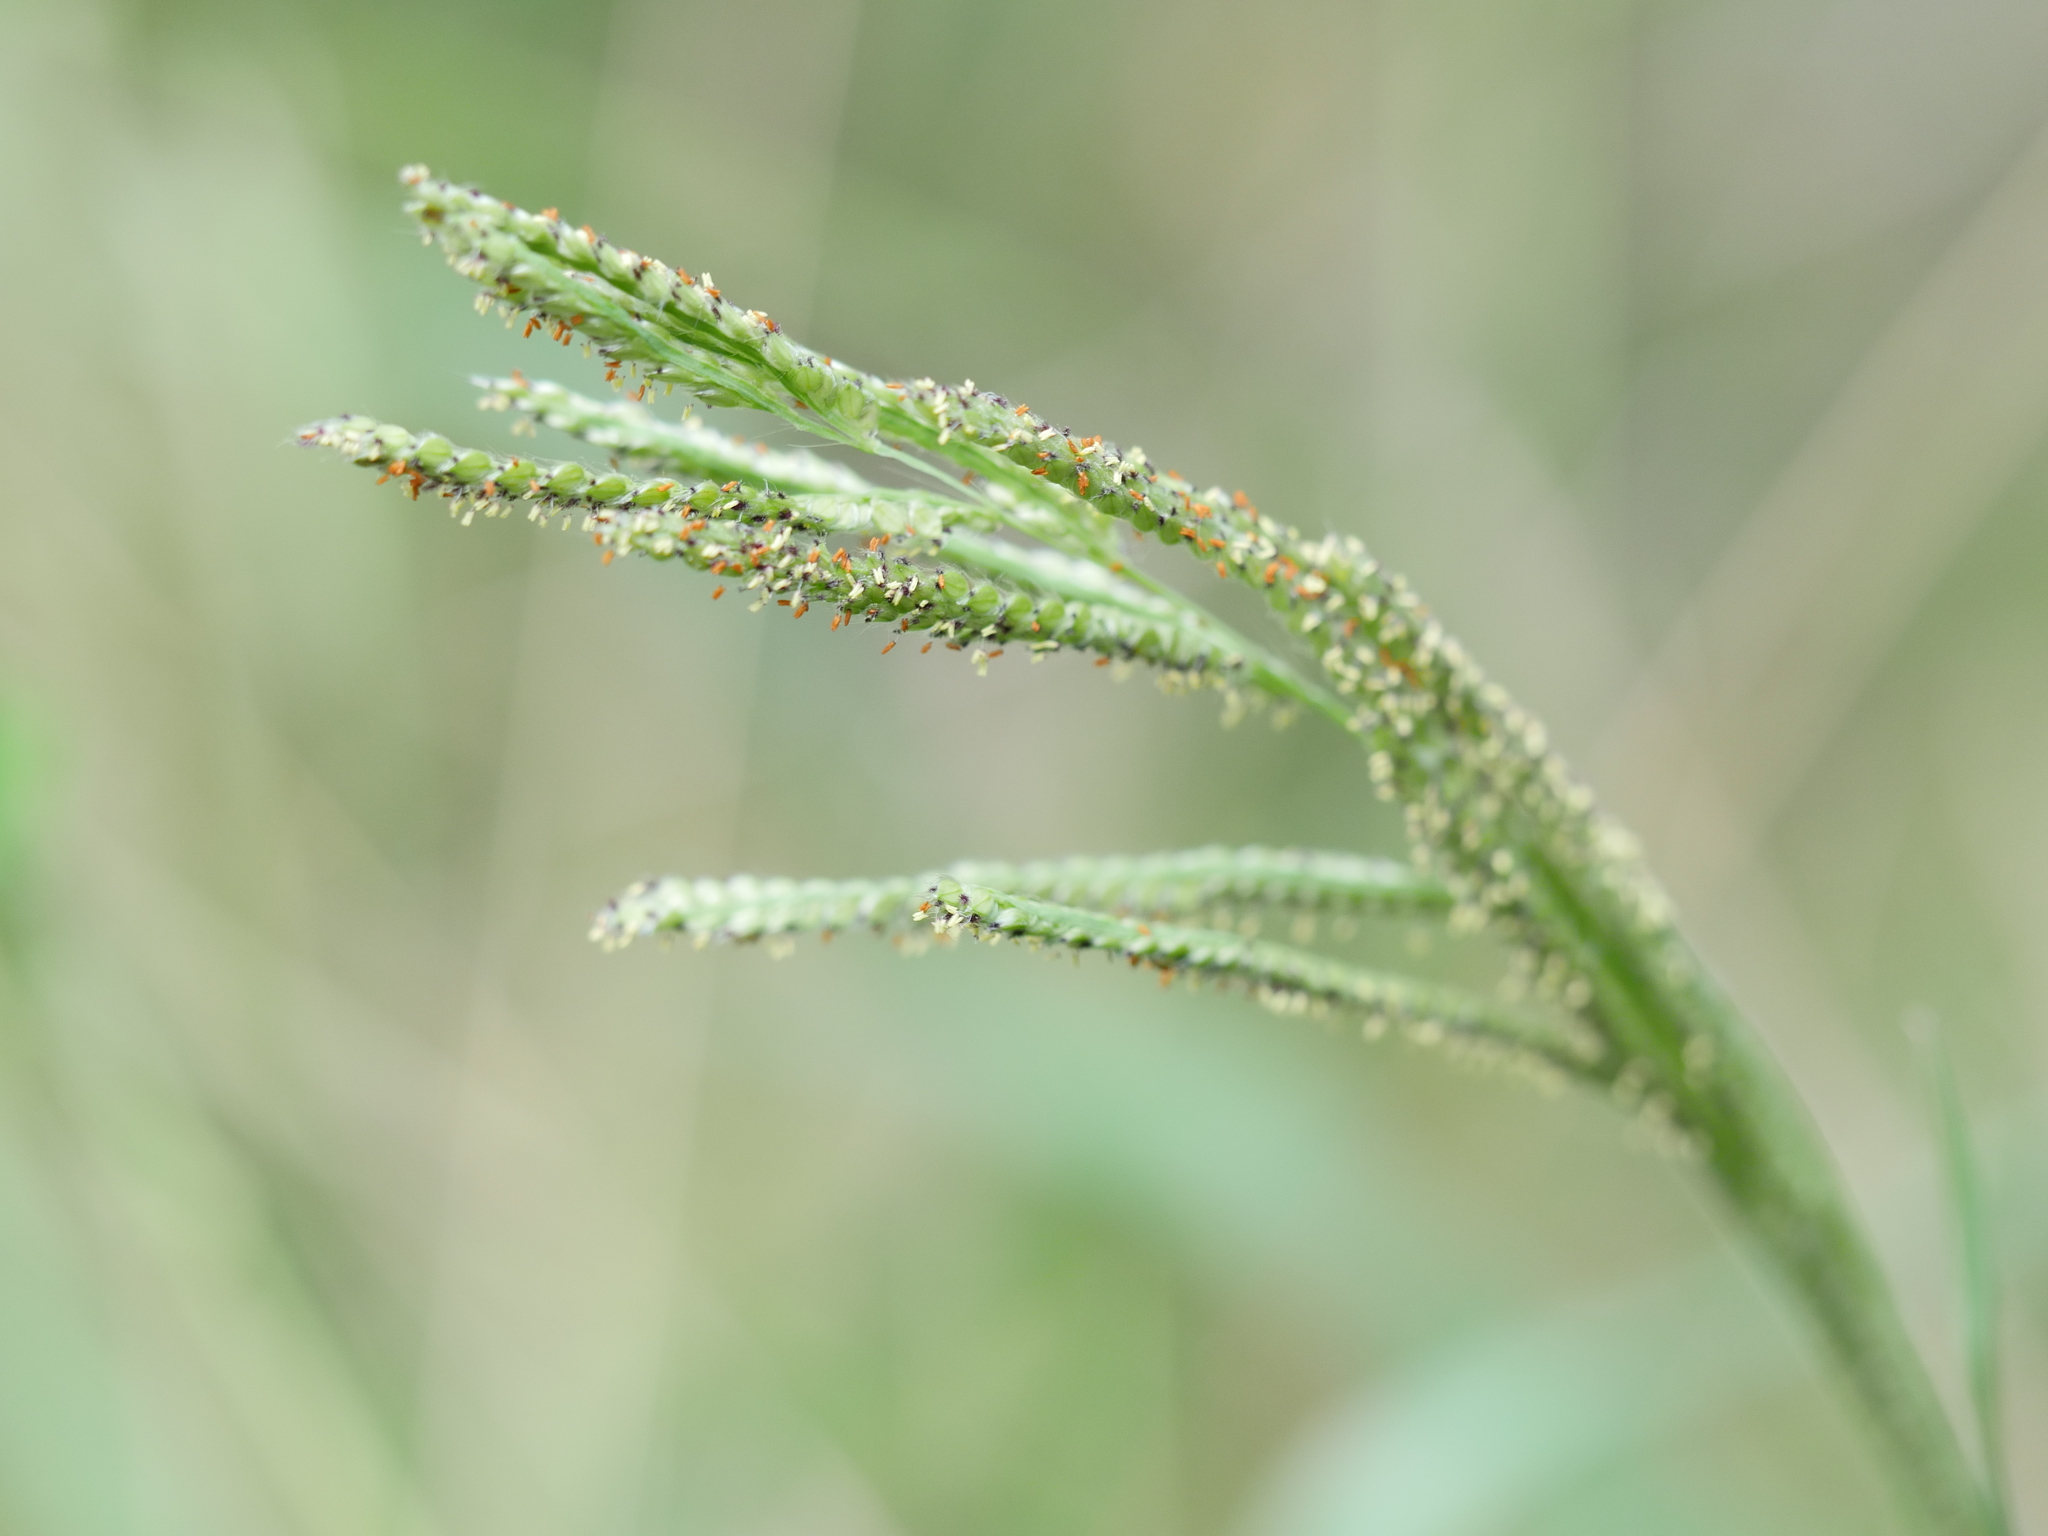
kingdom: Plantae
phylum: Tracheophyta
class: Liliopsida
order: Poales
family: Poaceae
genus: Paspalum
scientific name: Paspalum urvillei
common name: Vasey's grass
